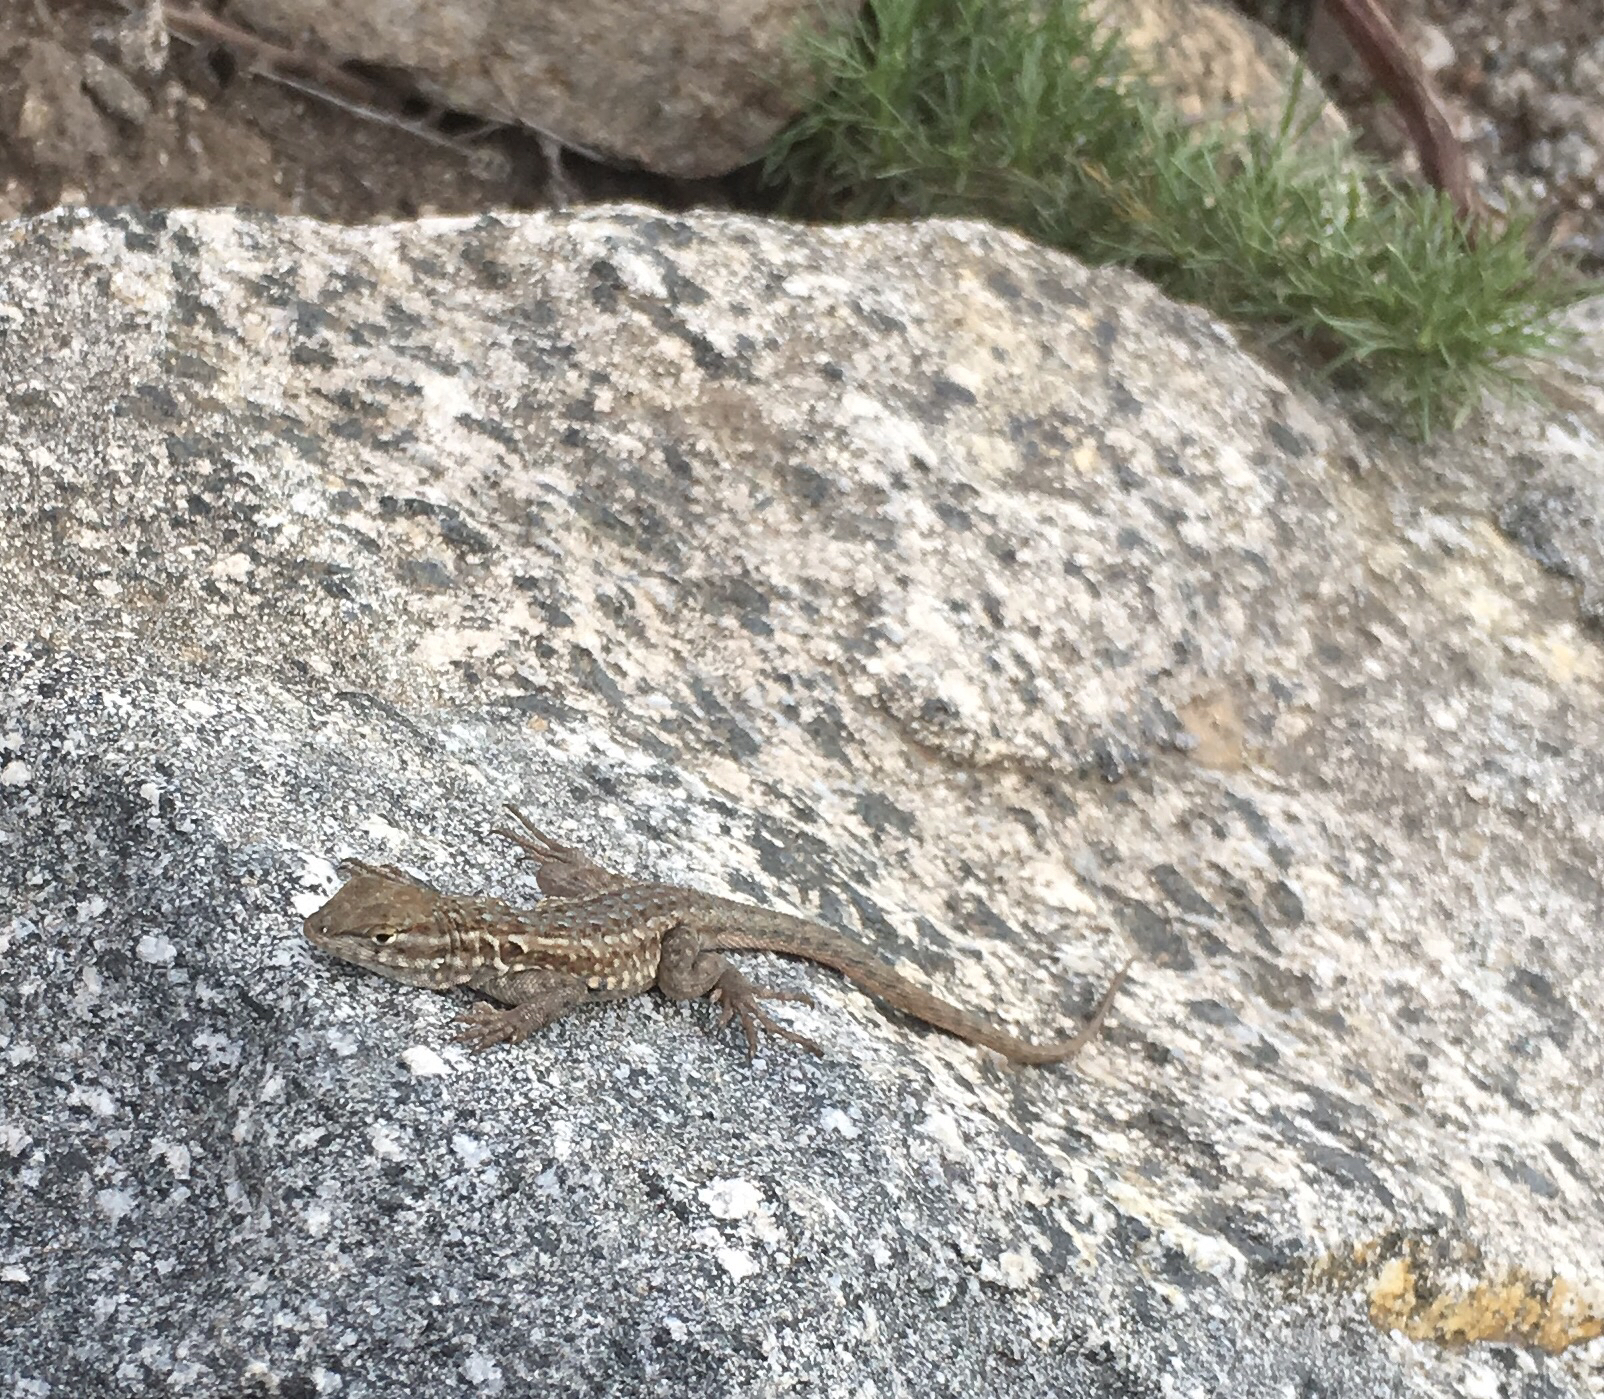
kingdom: Animalia
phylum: Chordata
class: Squamata
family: Phrynosomatidae
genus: Uta
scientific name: Uta stansburiana
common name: Side-blotched lizard
